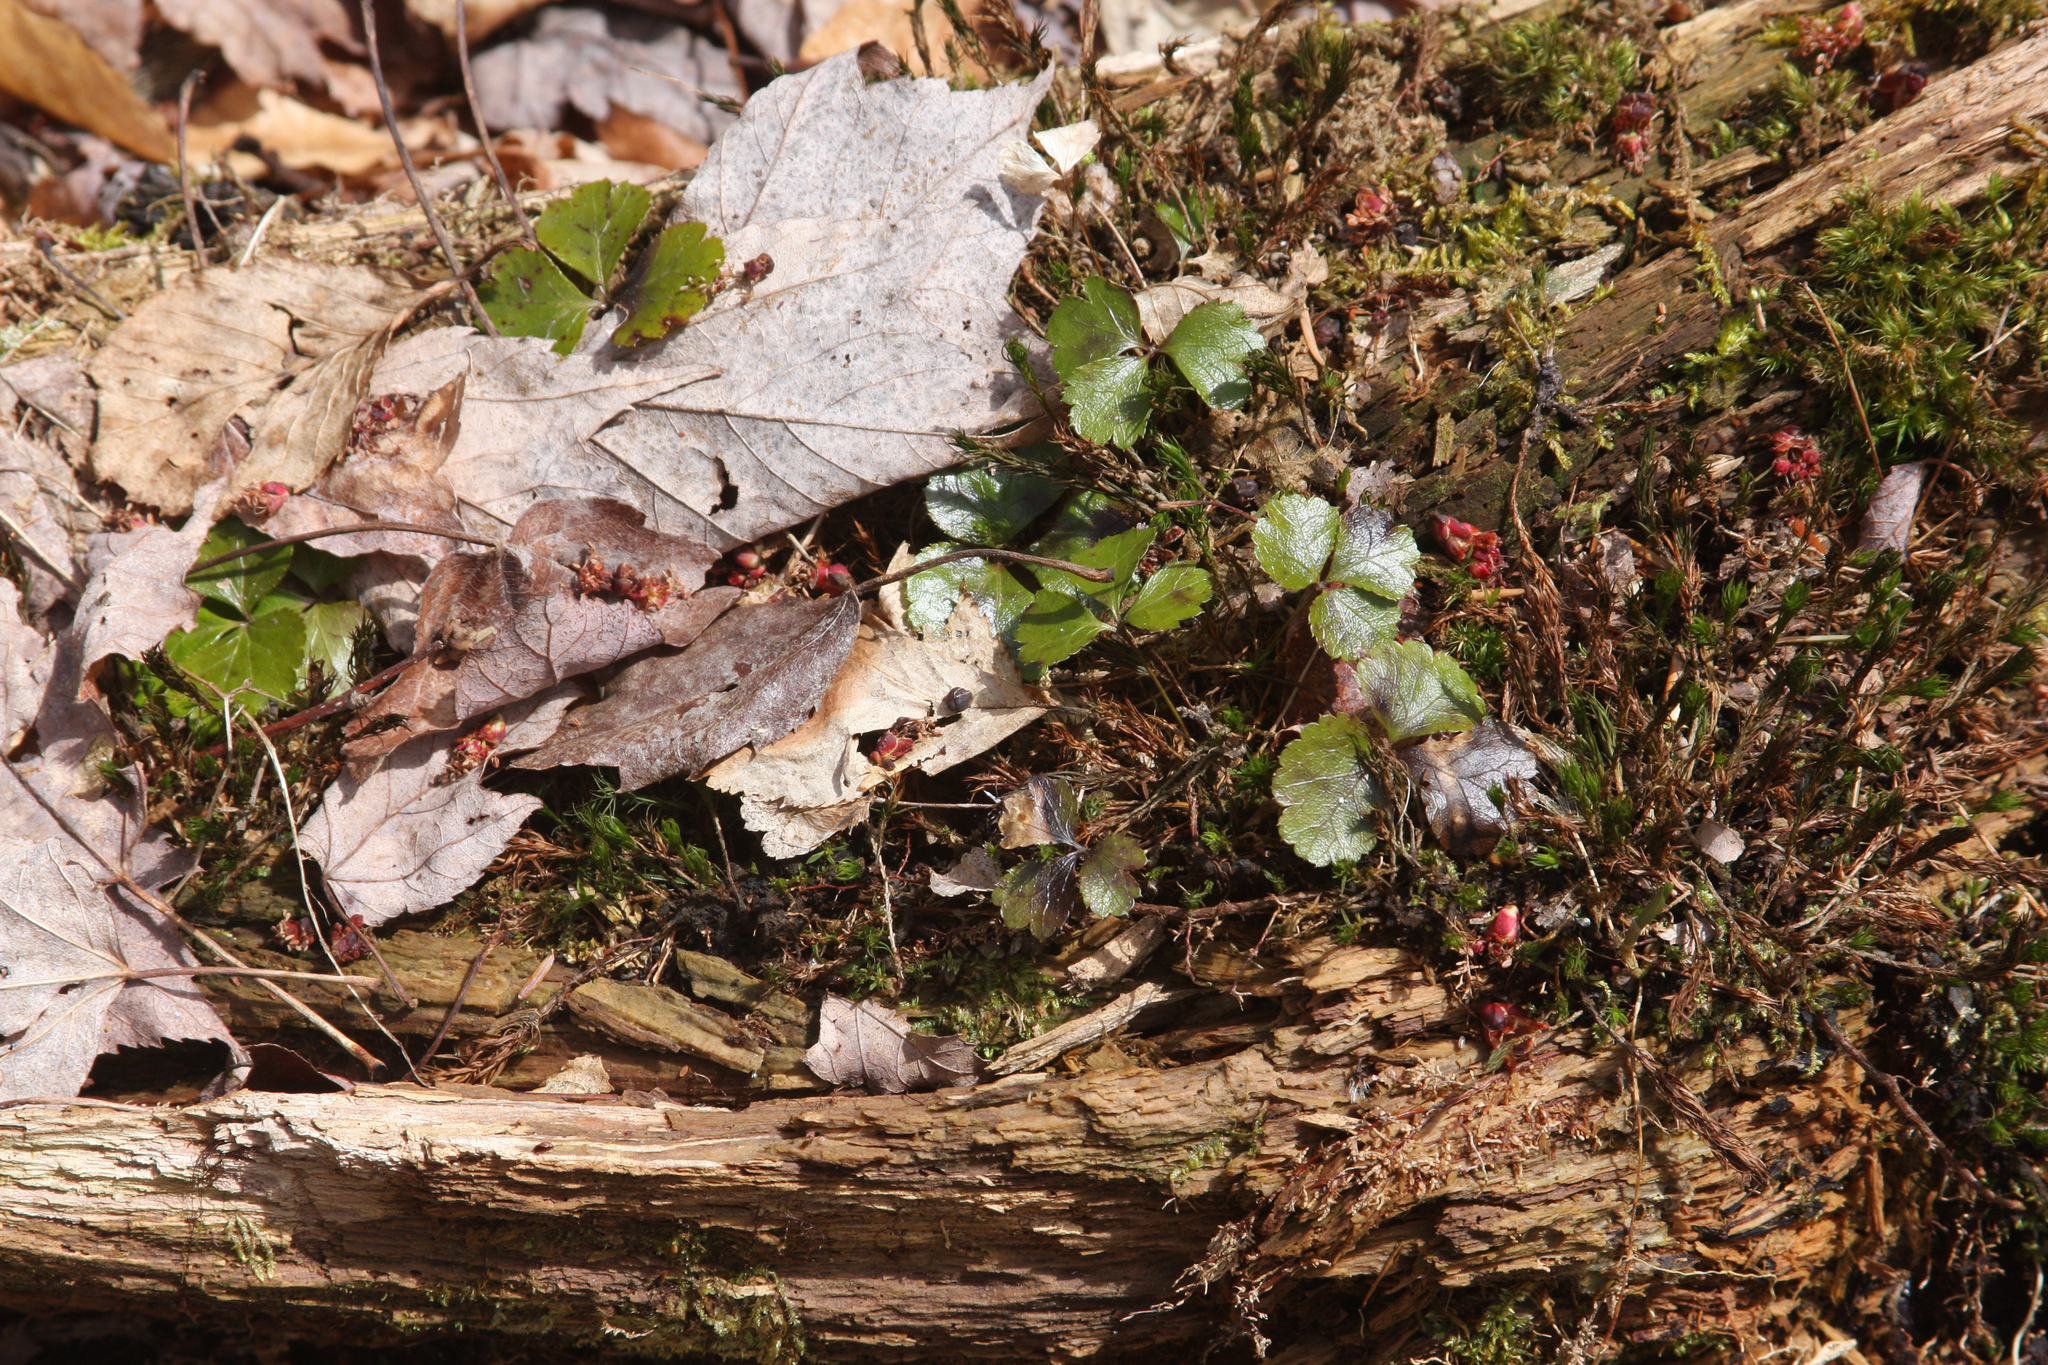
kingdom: Plantae
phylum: Tracheophyta
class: Magnoliopsida
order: Ranunculales
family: Ranunculaceae
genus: Coptis
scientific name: Coptis trifolia
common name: Canker-root
